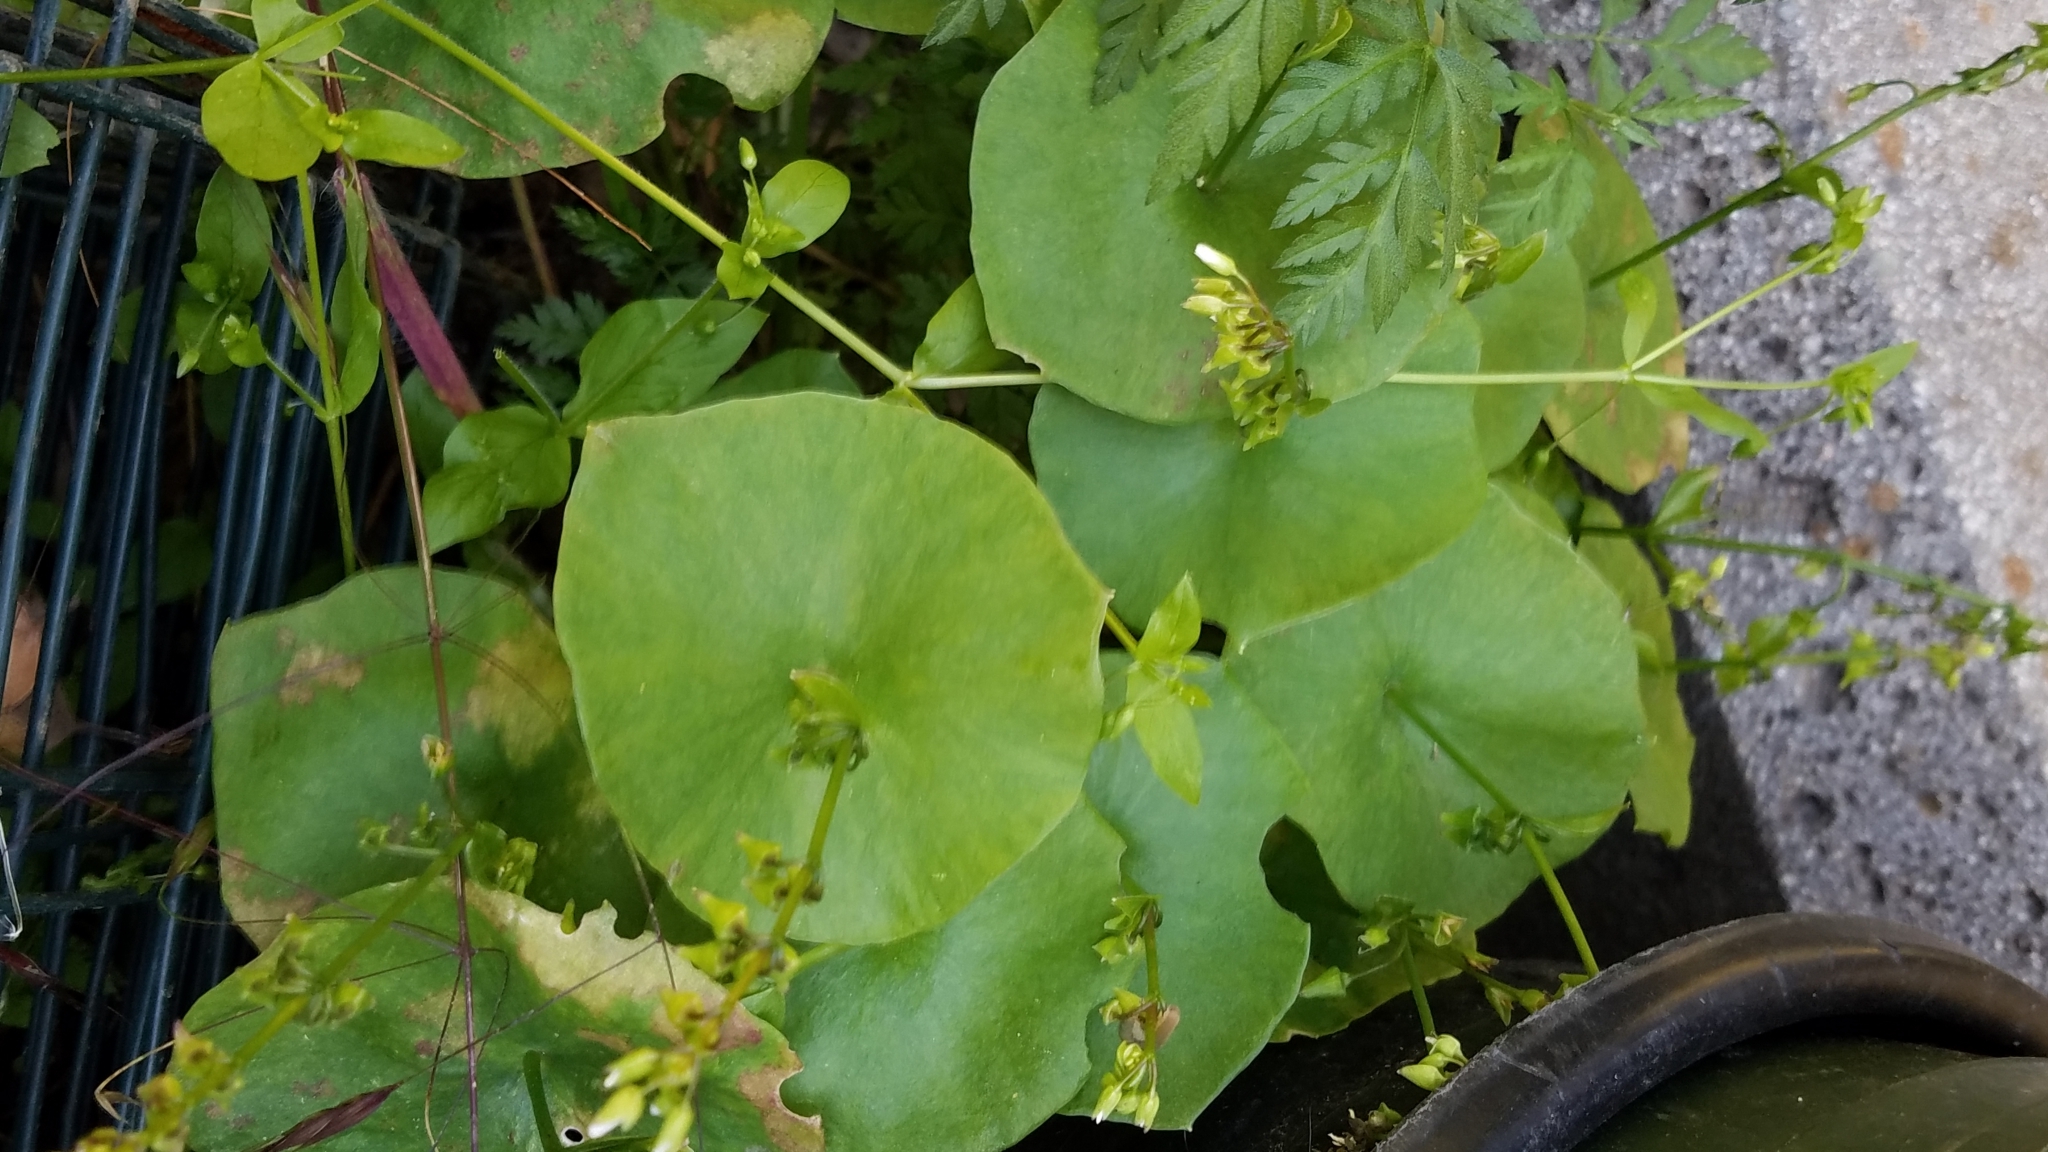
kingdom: Plantae
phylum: Tracheophyta
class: Magnoliopsida
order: Caryophyllales
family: Montiaceae
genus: Claytonia
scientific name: Claytonia perfoliata
